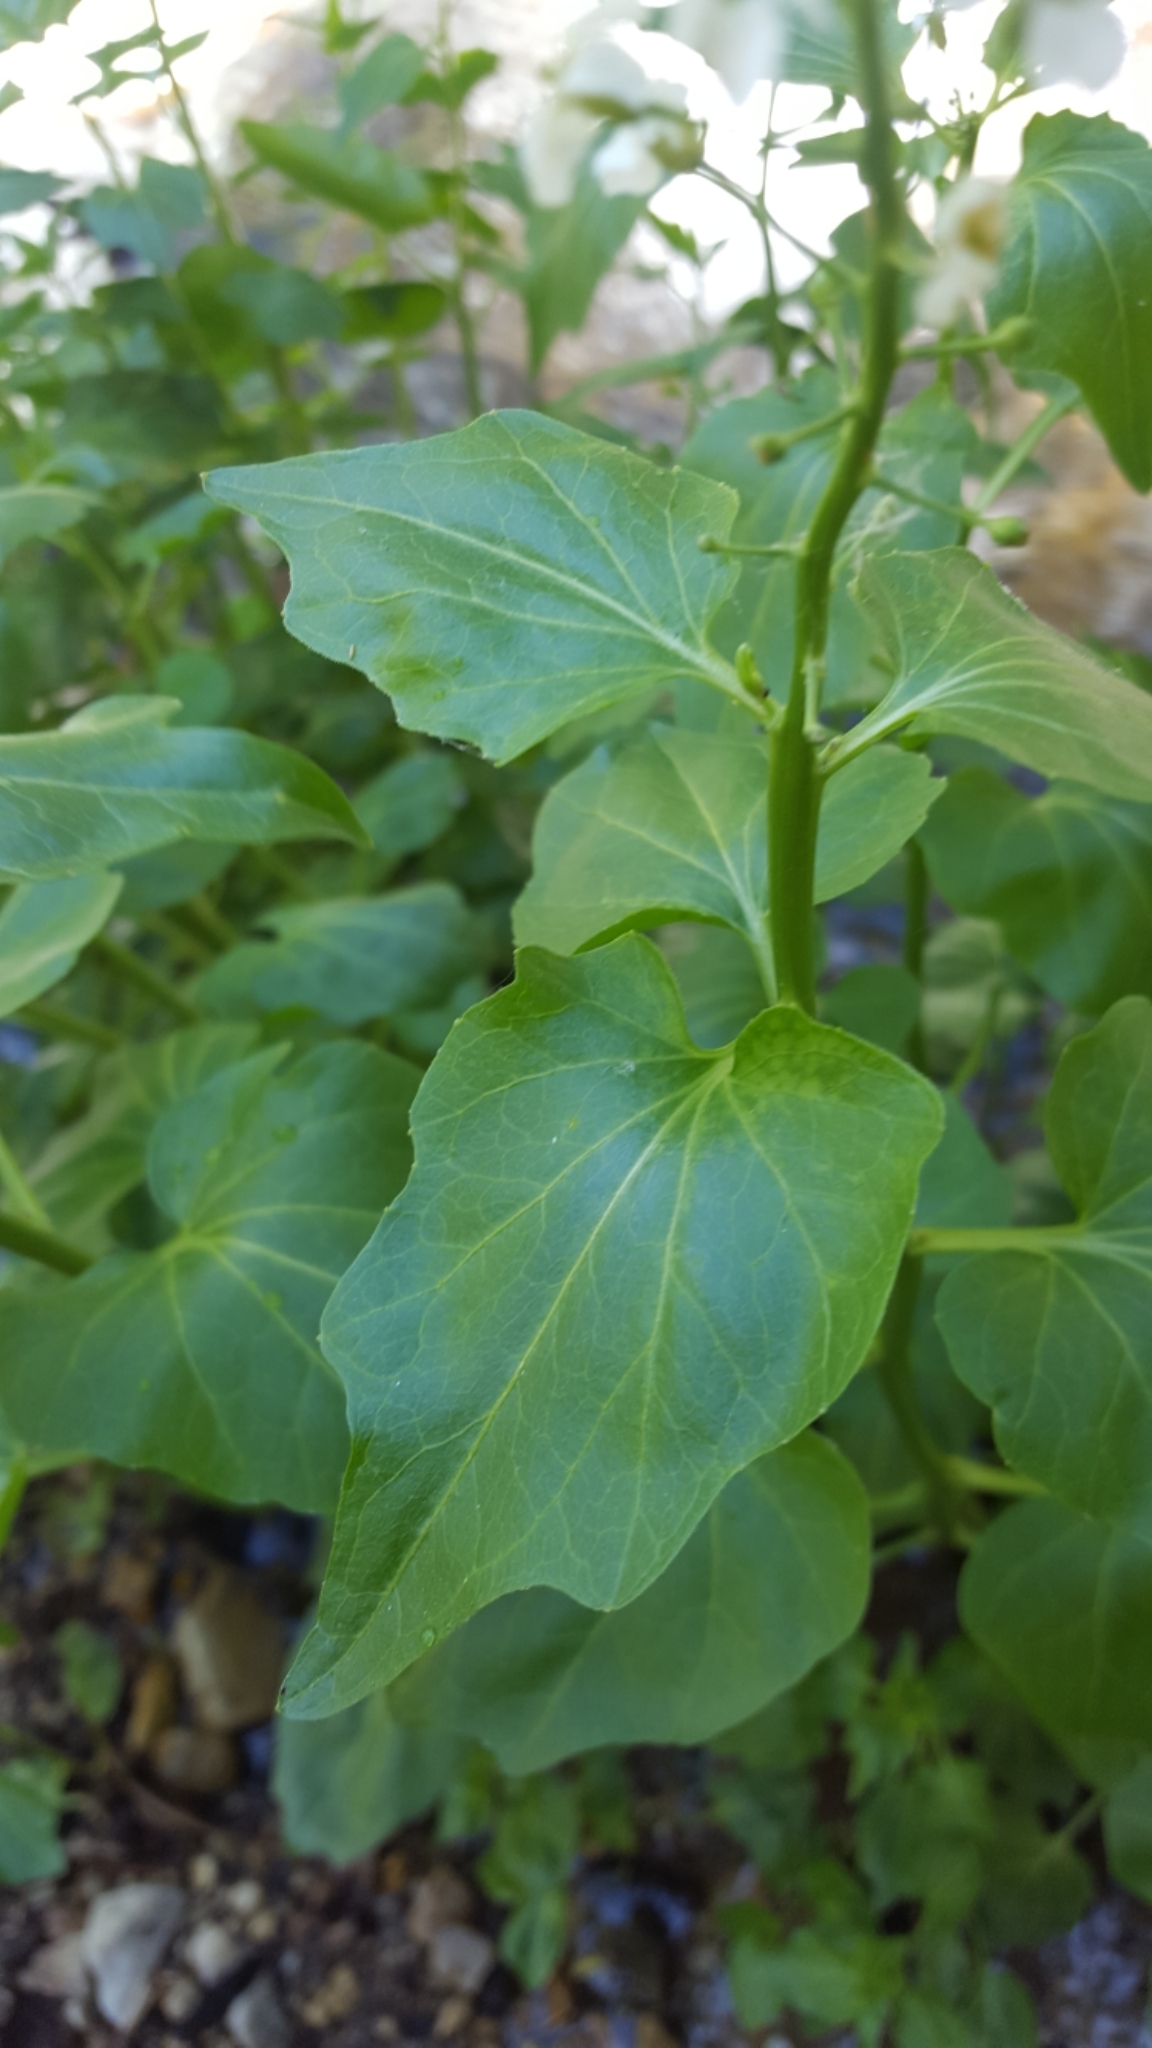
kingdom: Plantae
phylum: Tracheophyta
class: Magnoliopsida
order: Brassicales
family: Brassicaceae
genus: Cardamine
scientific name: Cardamine cordifolia
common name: Heart-leaf bittercress
